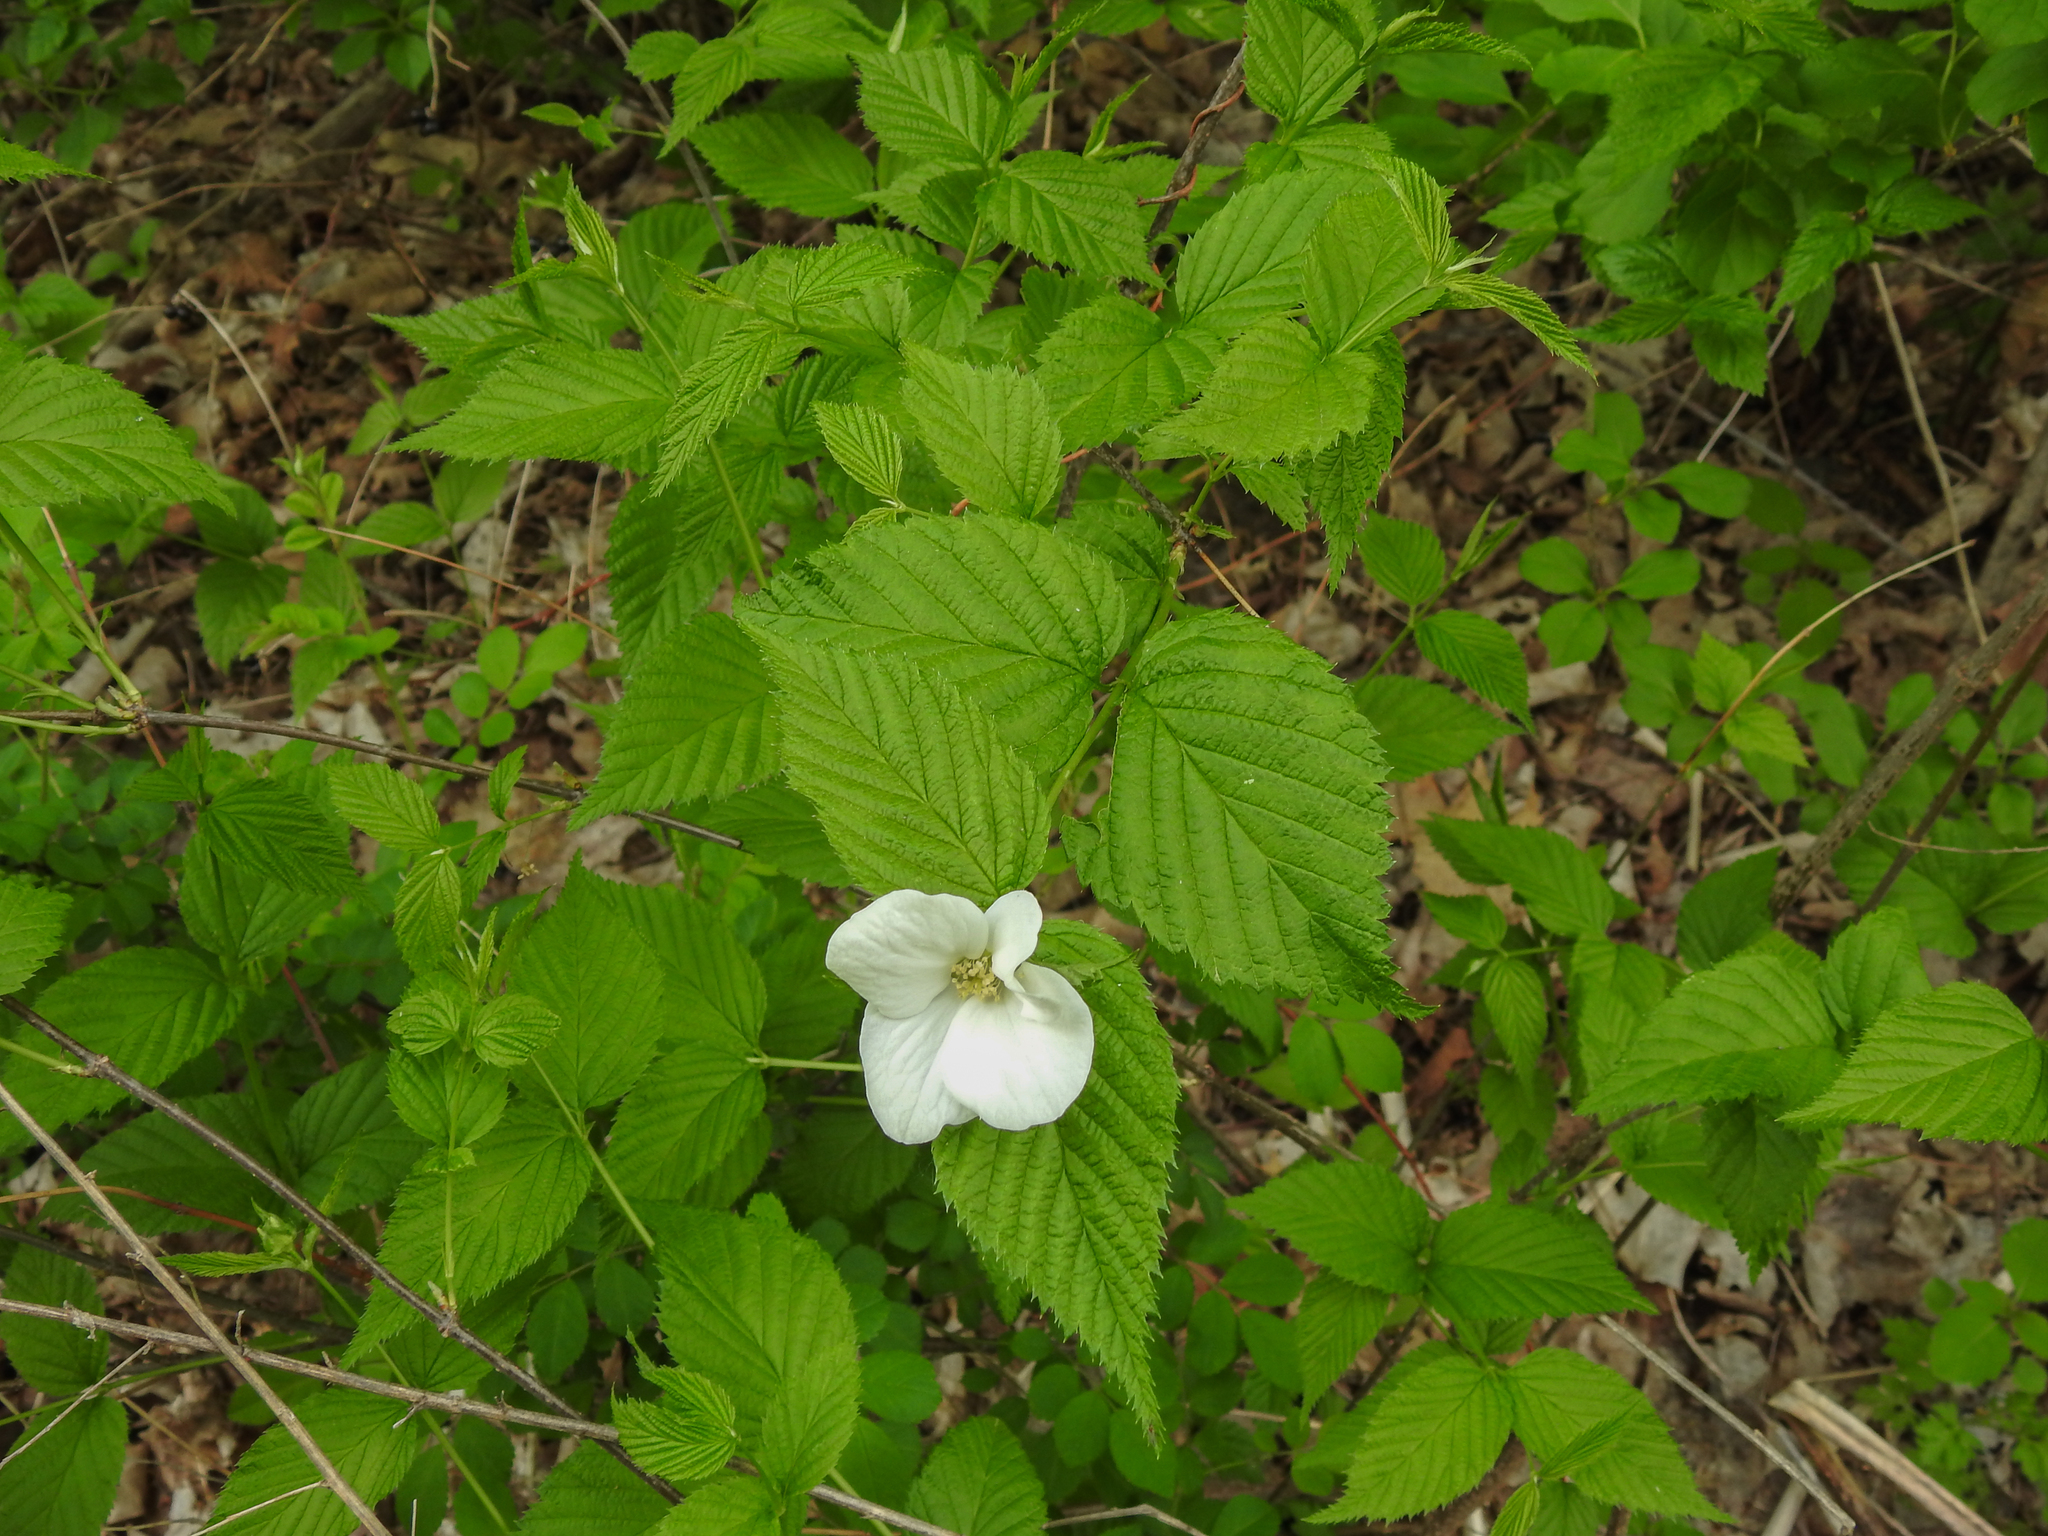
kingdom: Plantae
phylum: Tracheophyta
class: Magnoliopsida
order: Rosales
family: Rosaceae
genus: Rhodotypos
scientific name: Rhodotypos scandens
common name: Jetbead
